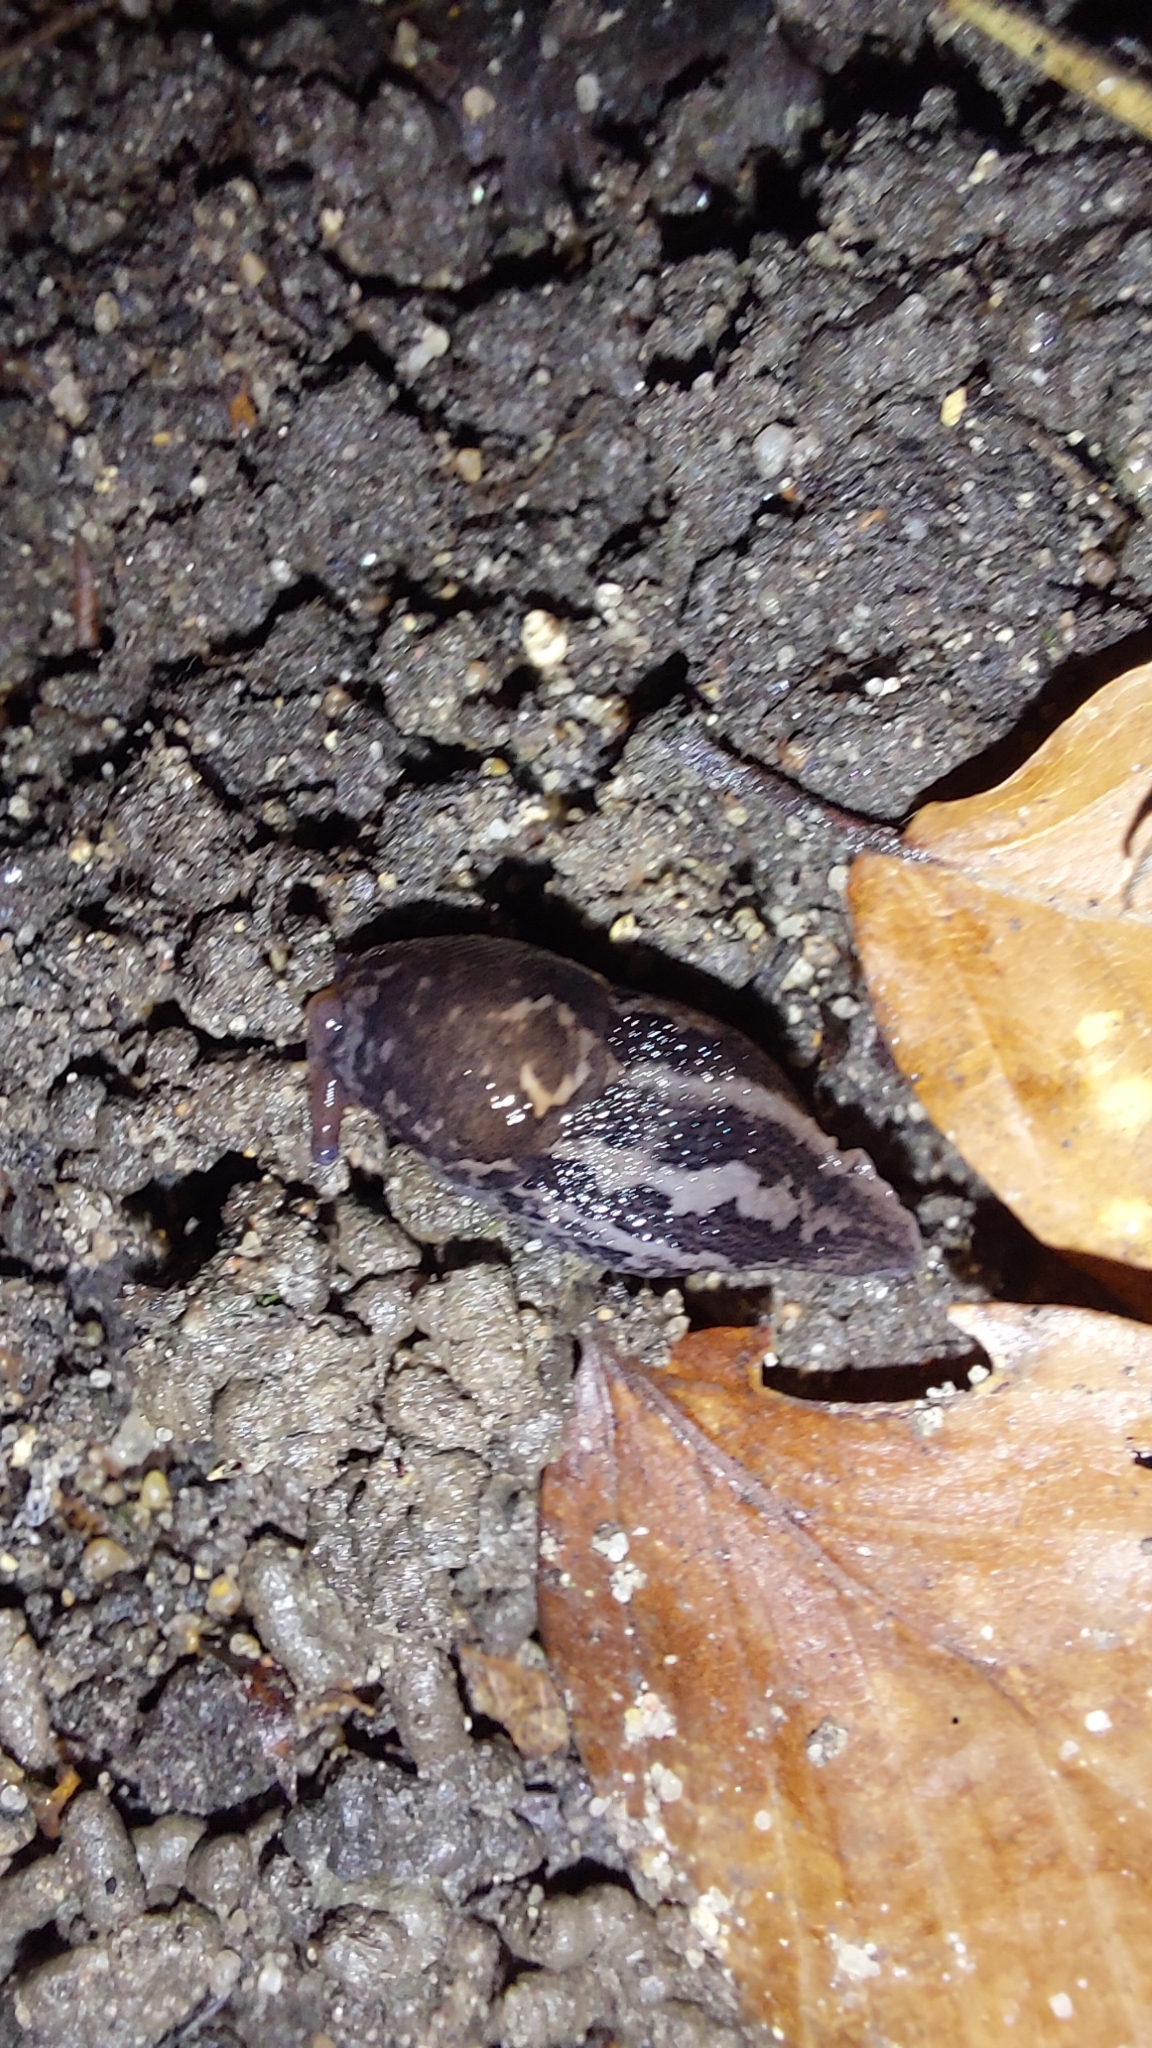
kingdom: Animalia
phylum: Mollusca
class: Gastropoda
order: Stylommatophora
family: Limacidae
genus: Limax
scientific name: Limax maximus
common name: Great grey slug
